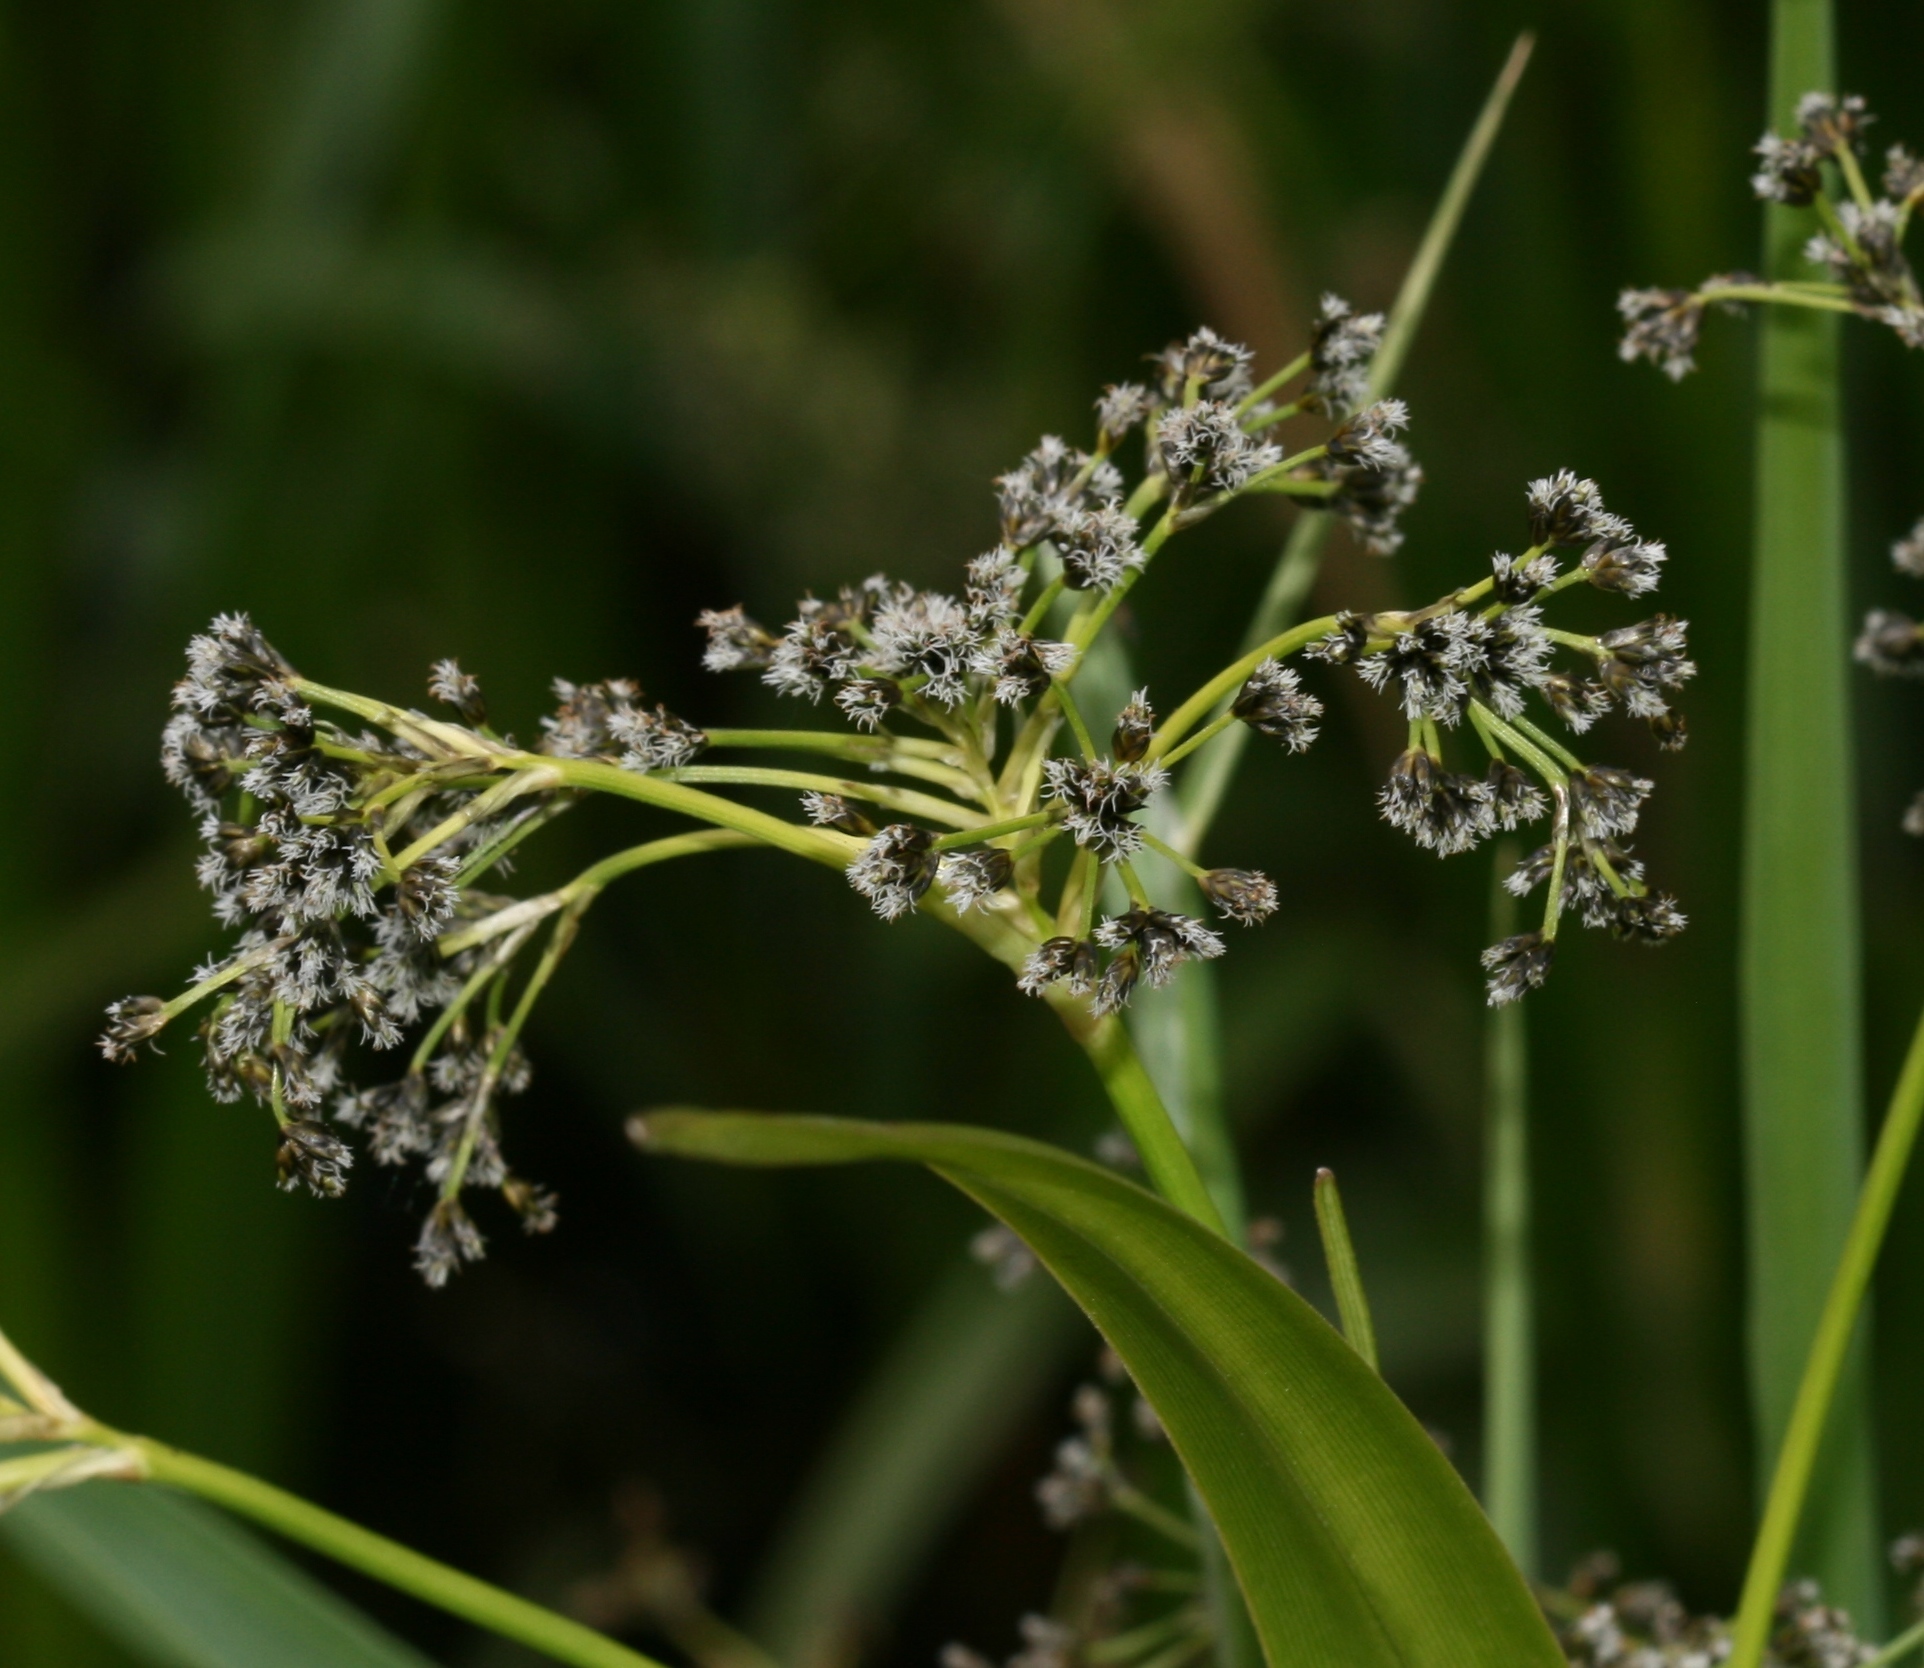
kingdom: Plantae
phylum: Tracheophyta
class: Liliopsida
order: Poales
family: Cyperaceae
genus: Scirpus
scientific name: Scirpus sylvaticus
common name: Wood club-rush
